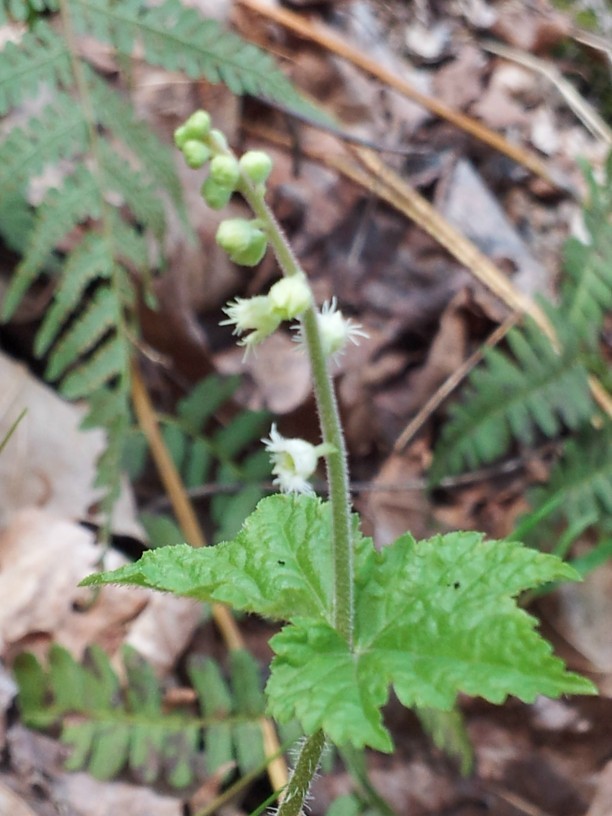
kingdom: Plantae
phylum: Tracheophyta
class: Magnoliopsida
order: Saxifragales
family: Saxifragaceae
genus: Mitella
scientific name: Mitella diphylla
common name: Coolwort
